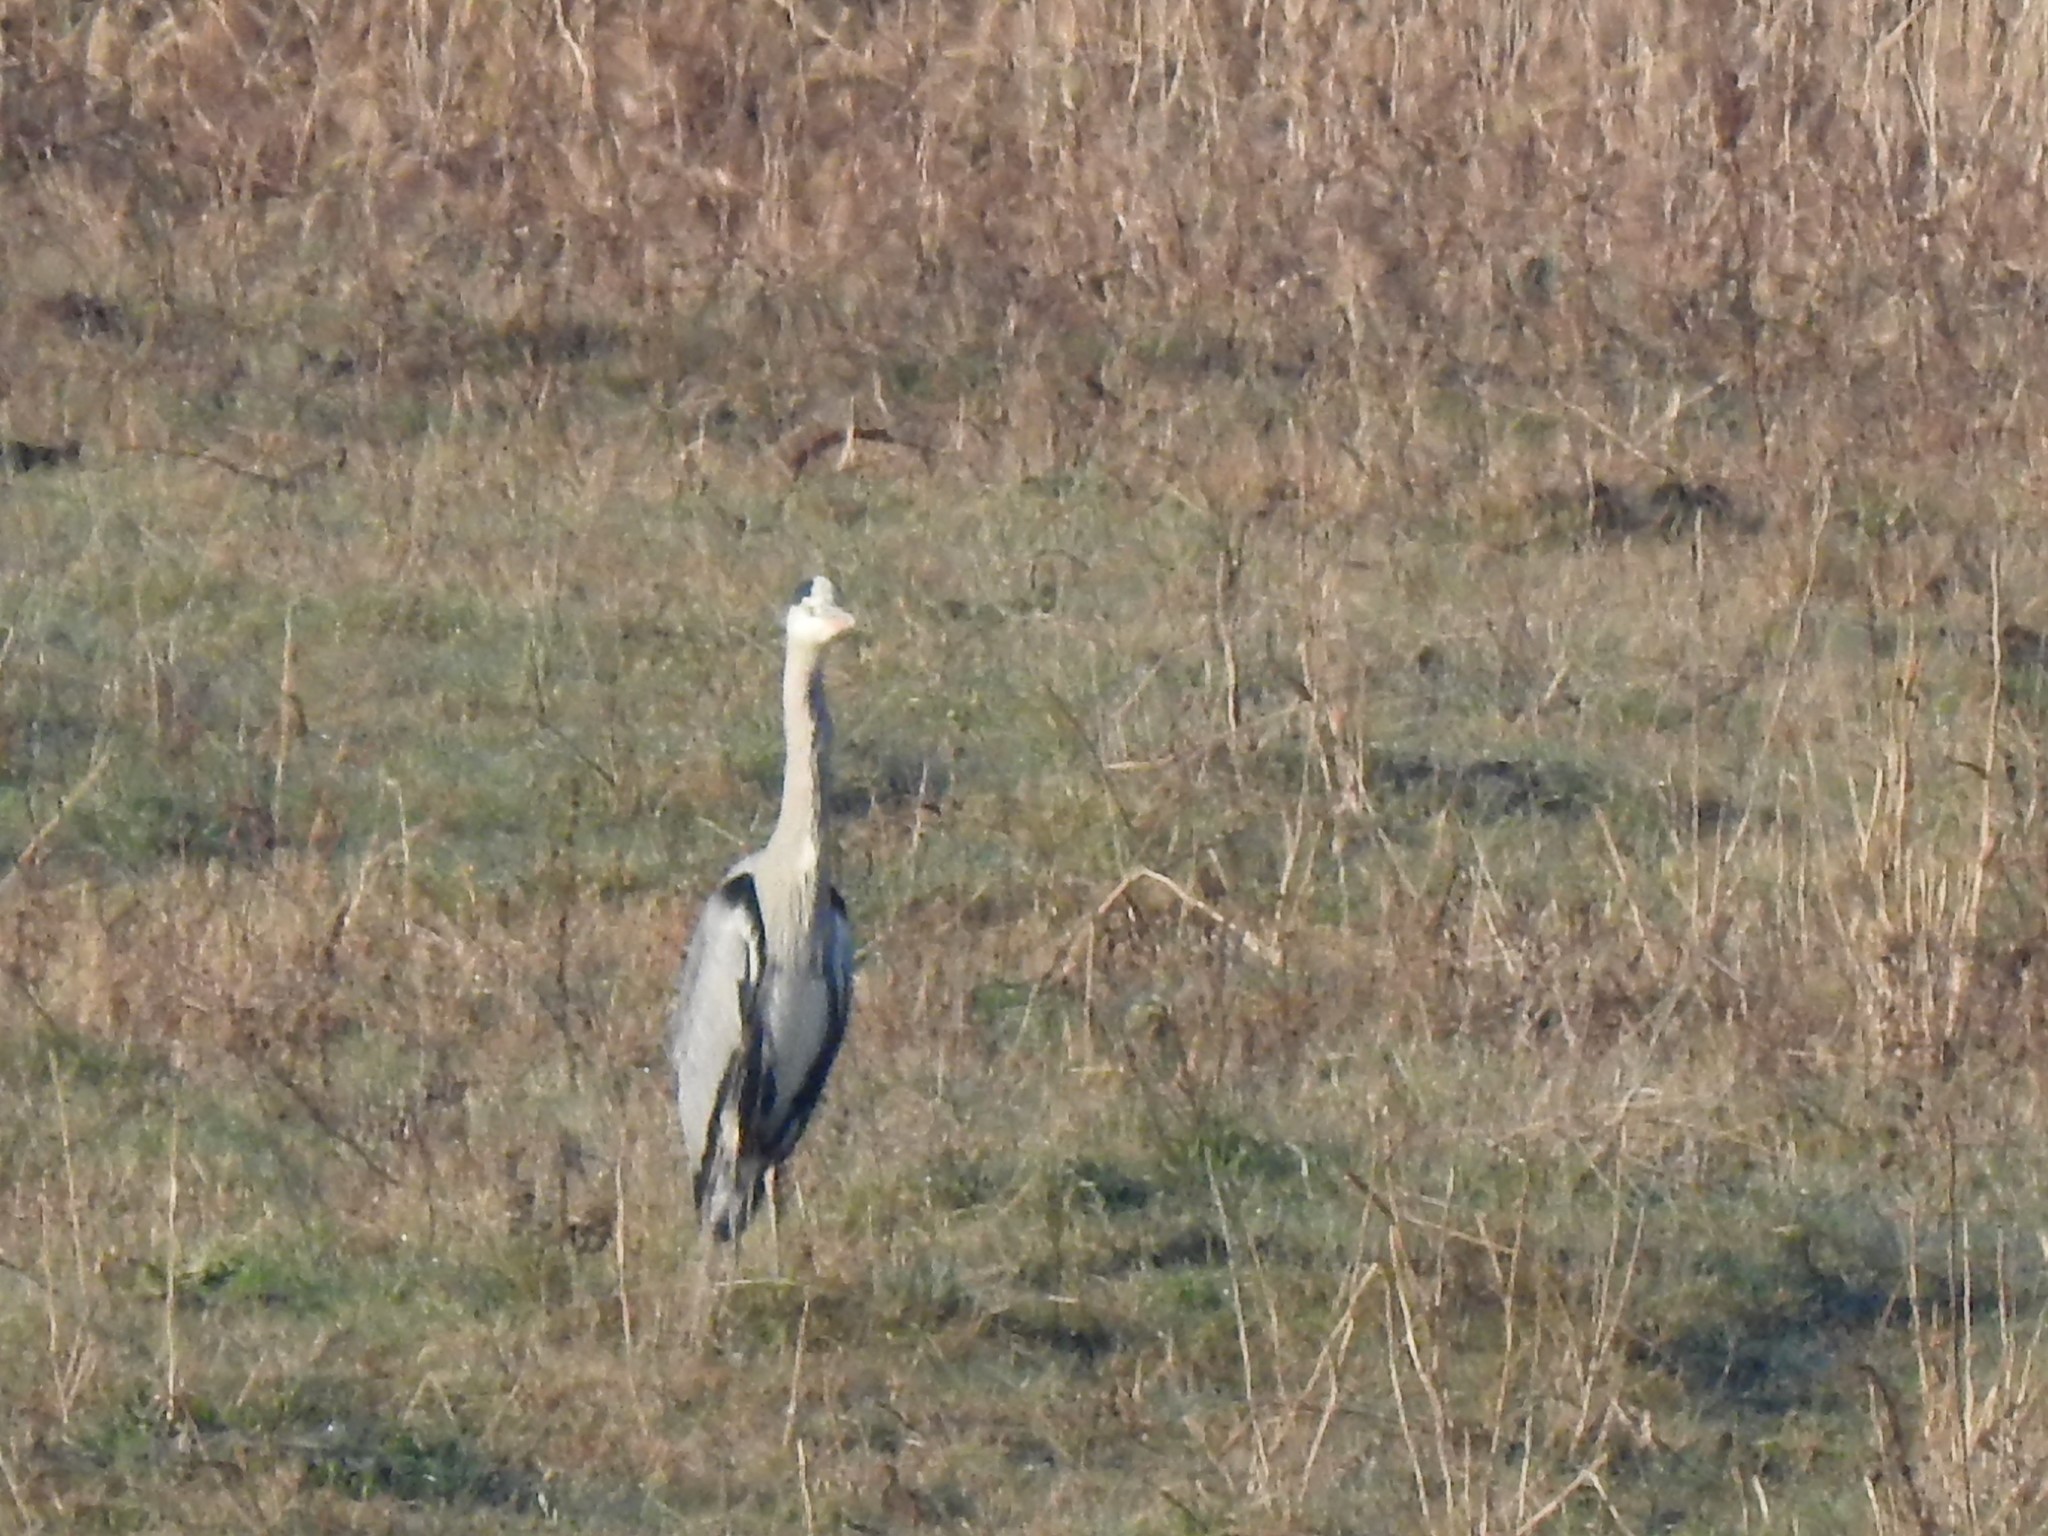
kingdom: Animalia
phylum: Chordata
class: Aves
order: Pelecaniformes
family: Ardeidae
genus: Ardea
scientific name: Ardea cinerea
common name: Grey heron
